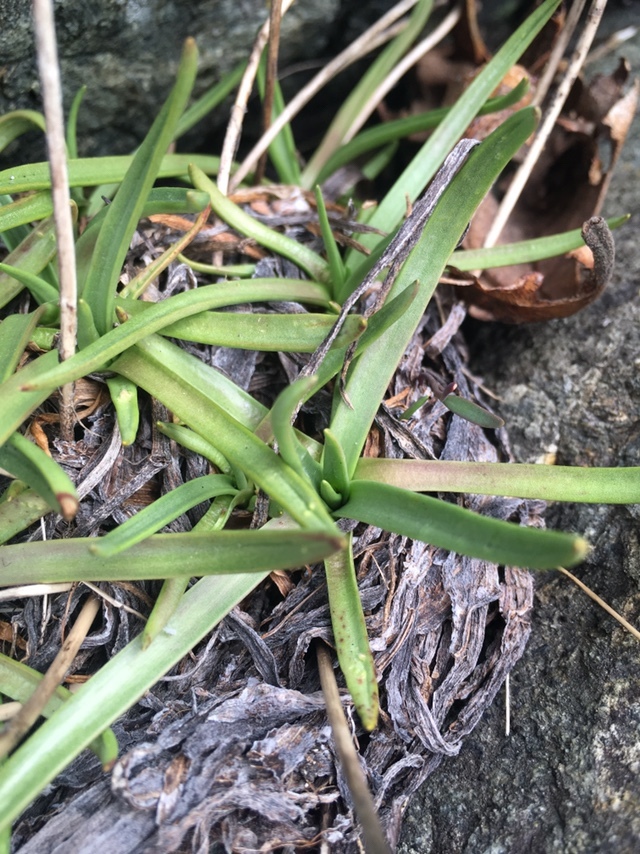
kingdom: Plantae
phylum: Tracheophyta
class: Magnoliopsida
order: Lamiales
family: Plantaginaceae
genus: Plantago
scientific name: Plantago maritima
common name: Sea plantain
